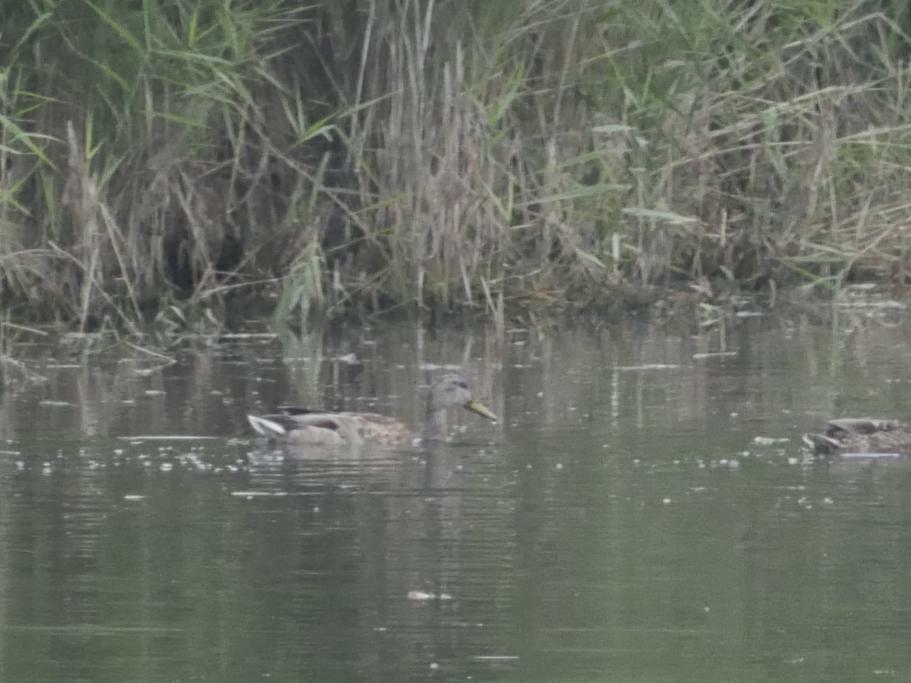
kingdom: Animalia
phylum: Chordata
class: Aves
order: Anseriformes
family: Anatidae
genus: Anas
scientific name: Anas platyrhynchos
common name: Mallard
